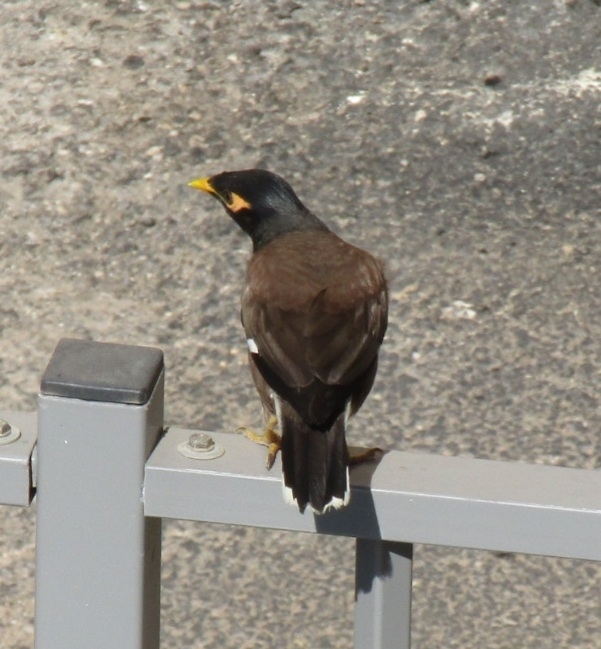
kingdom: Animalia
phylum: Chordata
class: Aves
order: Passeriformes
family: Sturnidae
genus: Acridotheres
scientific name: Acridotheres tristis
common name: Common myna
